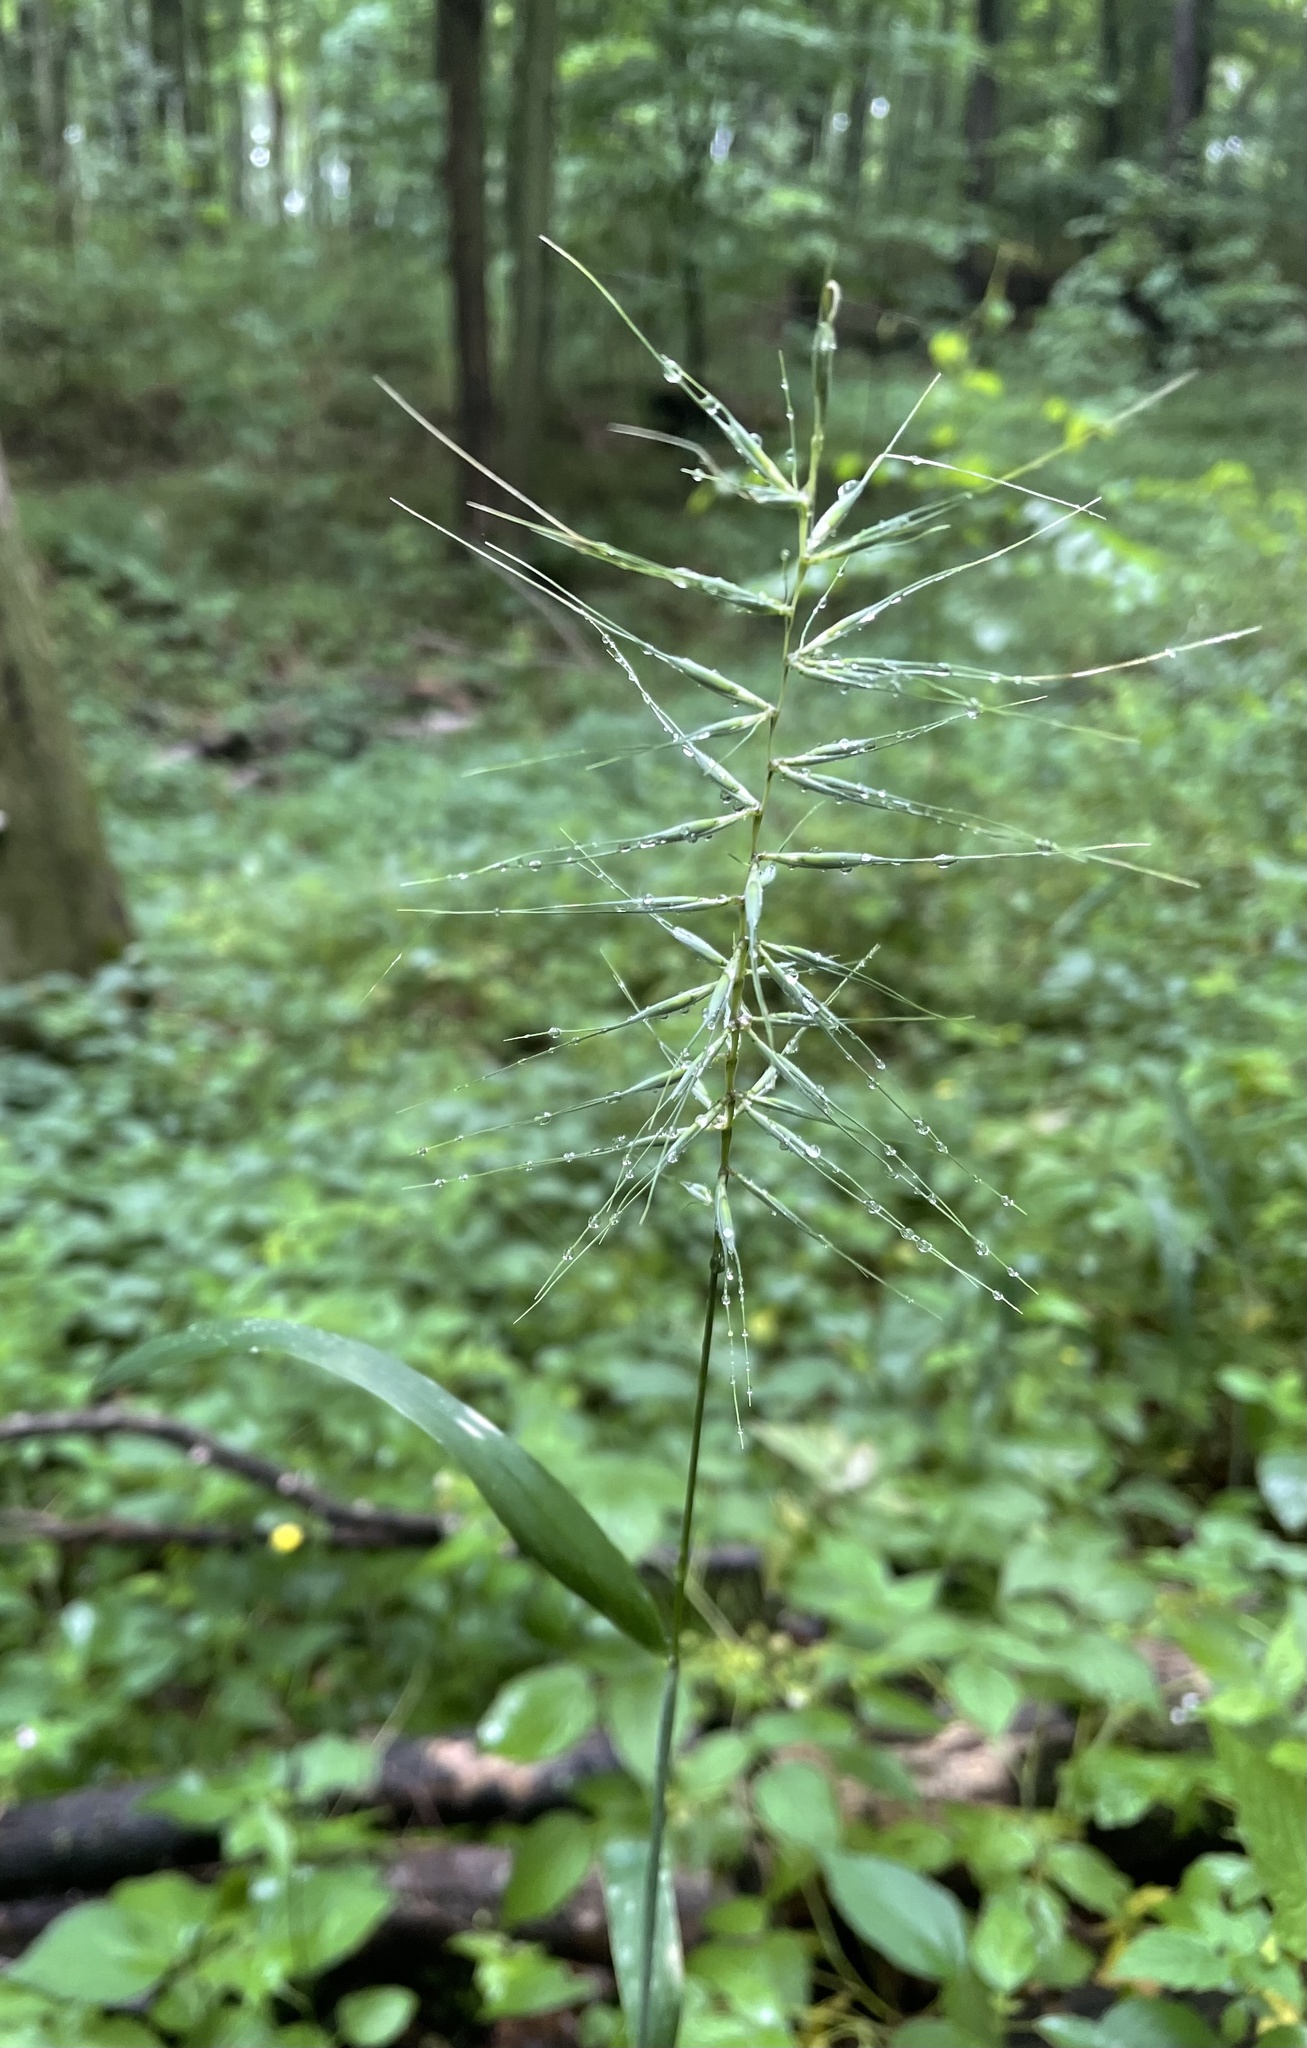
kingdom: Plantae
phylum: Tracheophyta
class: Liliopsida
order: Poales
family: Poaceae
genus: Elymus
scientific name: Elymus hystrix
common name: Bottlebrush grass
